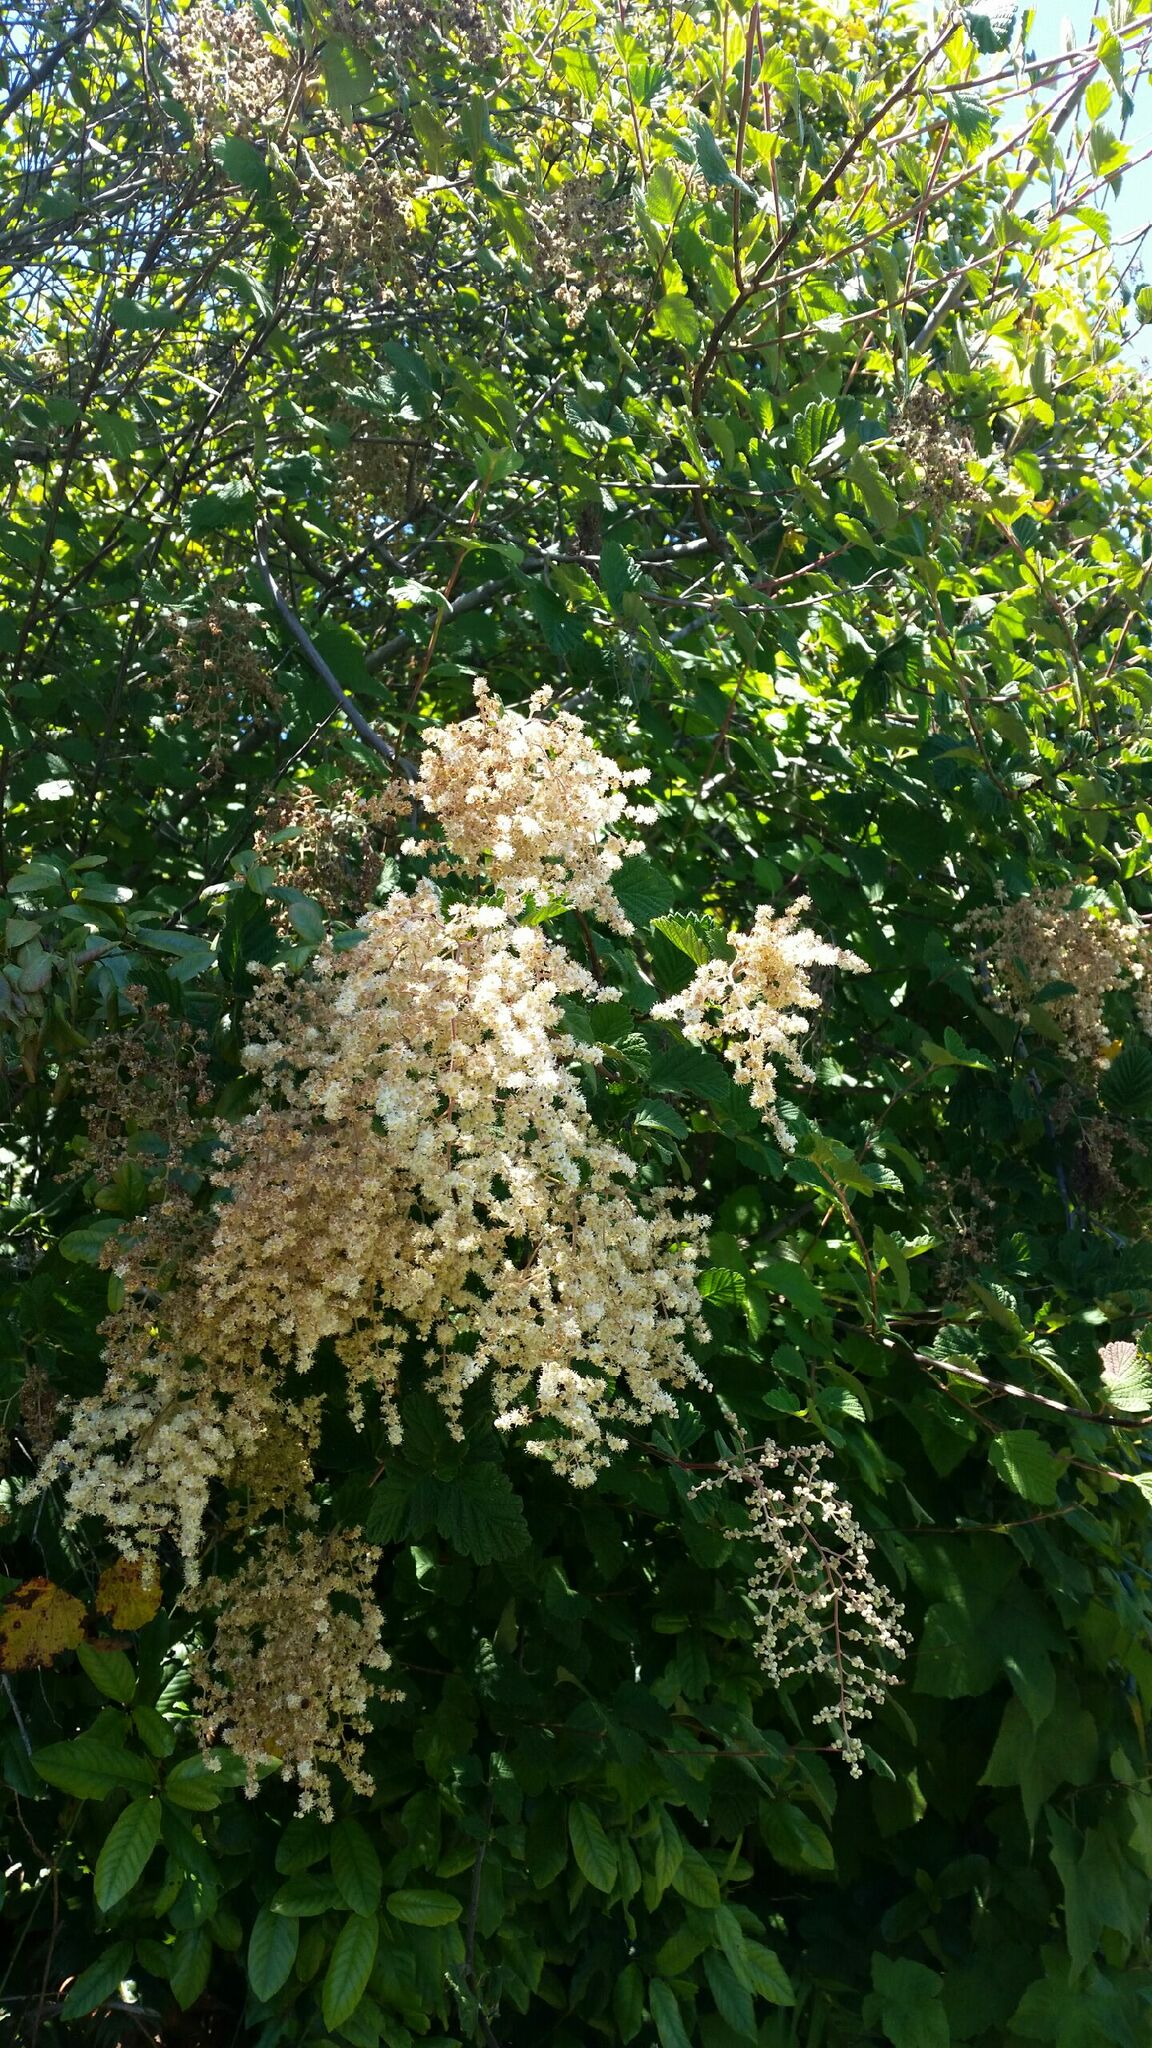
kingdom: Plantae
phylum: Tracheophyta
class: Magnoliopsida
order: Rosales
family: Rosaceae
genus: Holodiscus
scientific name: Holodiscus discolor
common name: Oceanspray
